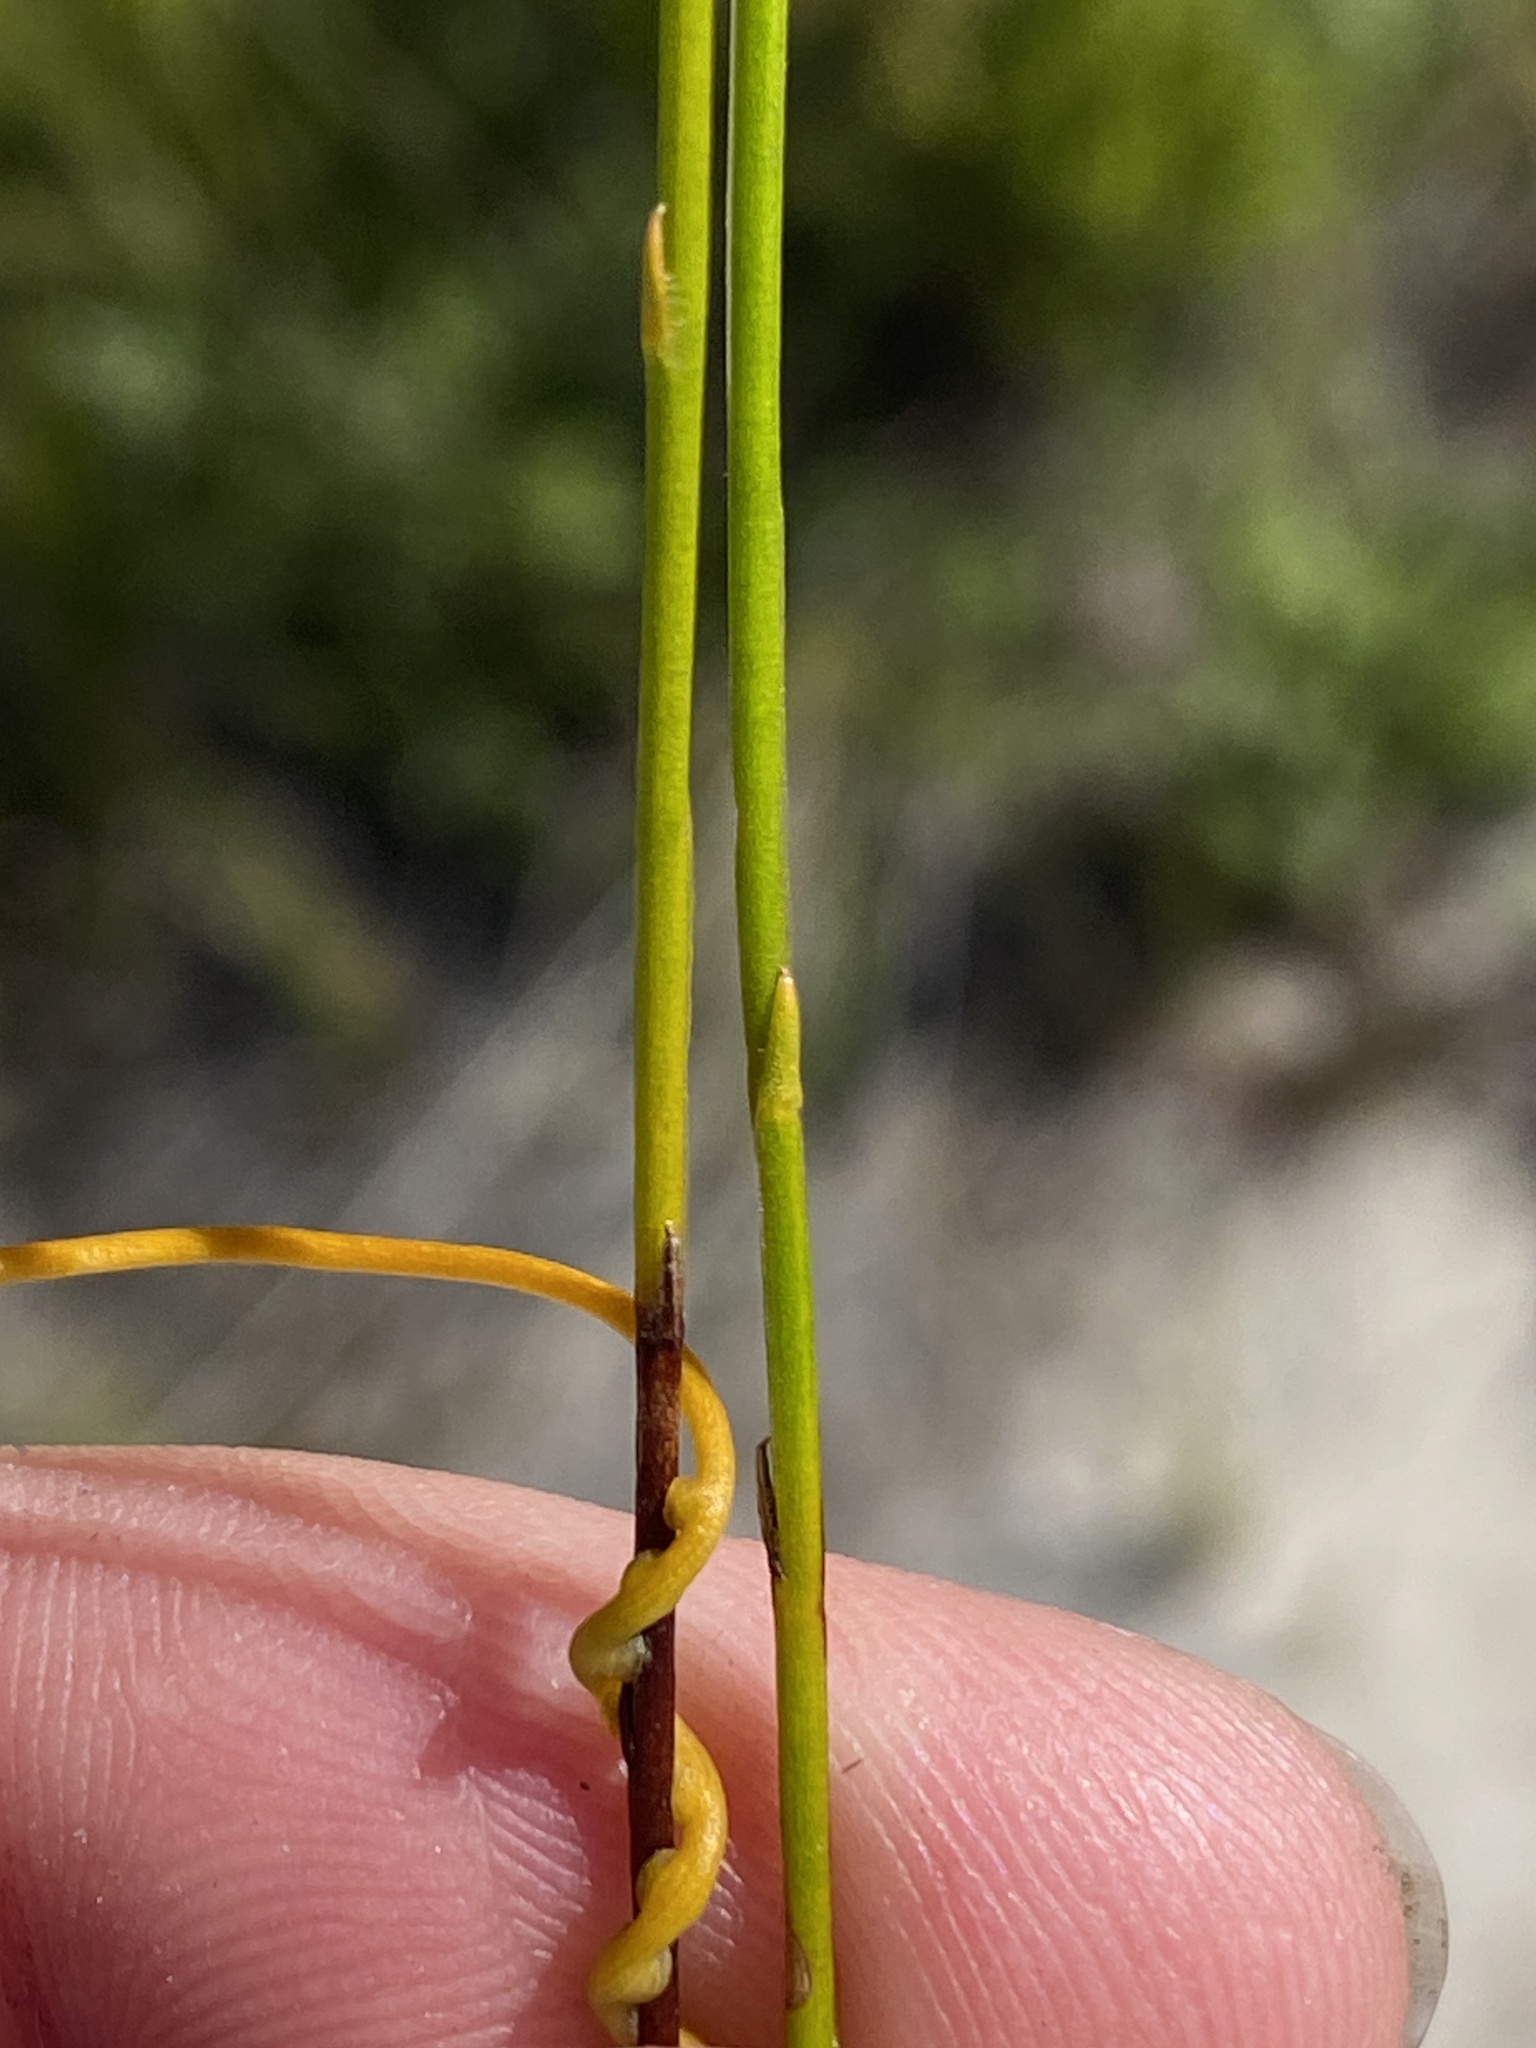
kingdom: Plantae
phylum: Tracheophyta
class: Magnoliopsida
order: Asterales
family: Campanulaceae
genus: Siphocodon
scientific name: Siphocodon spartioides
